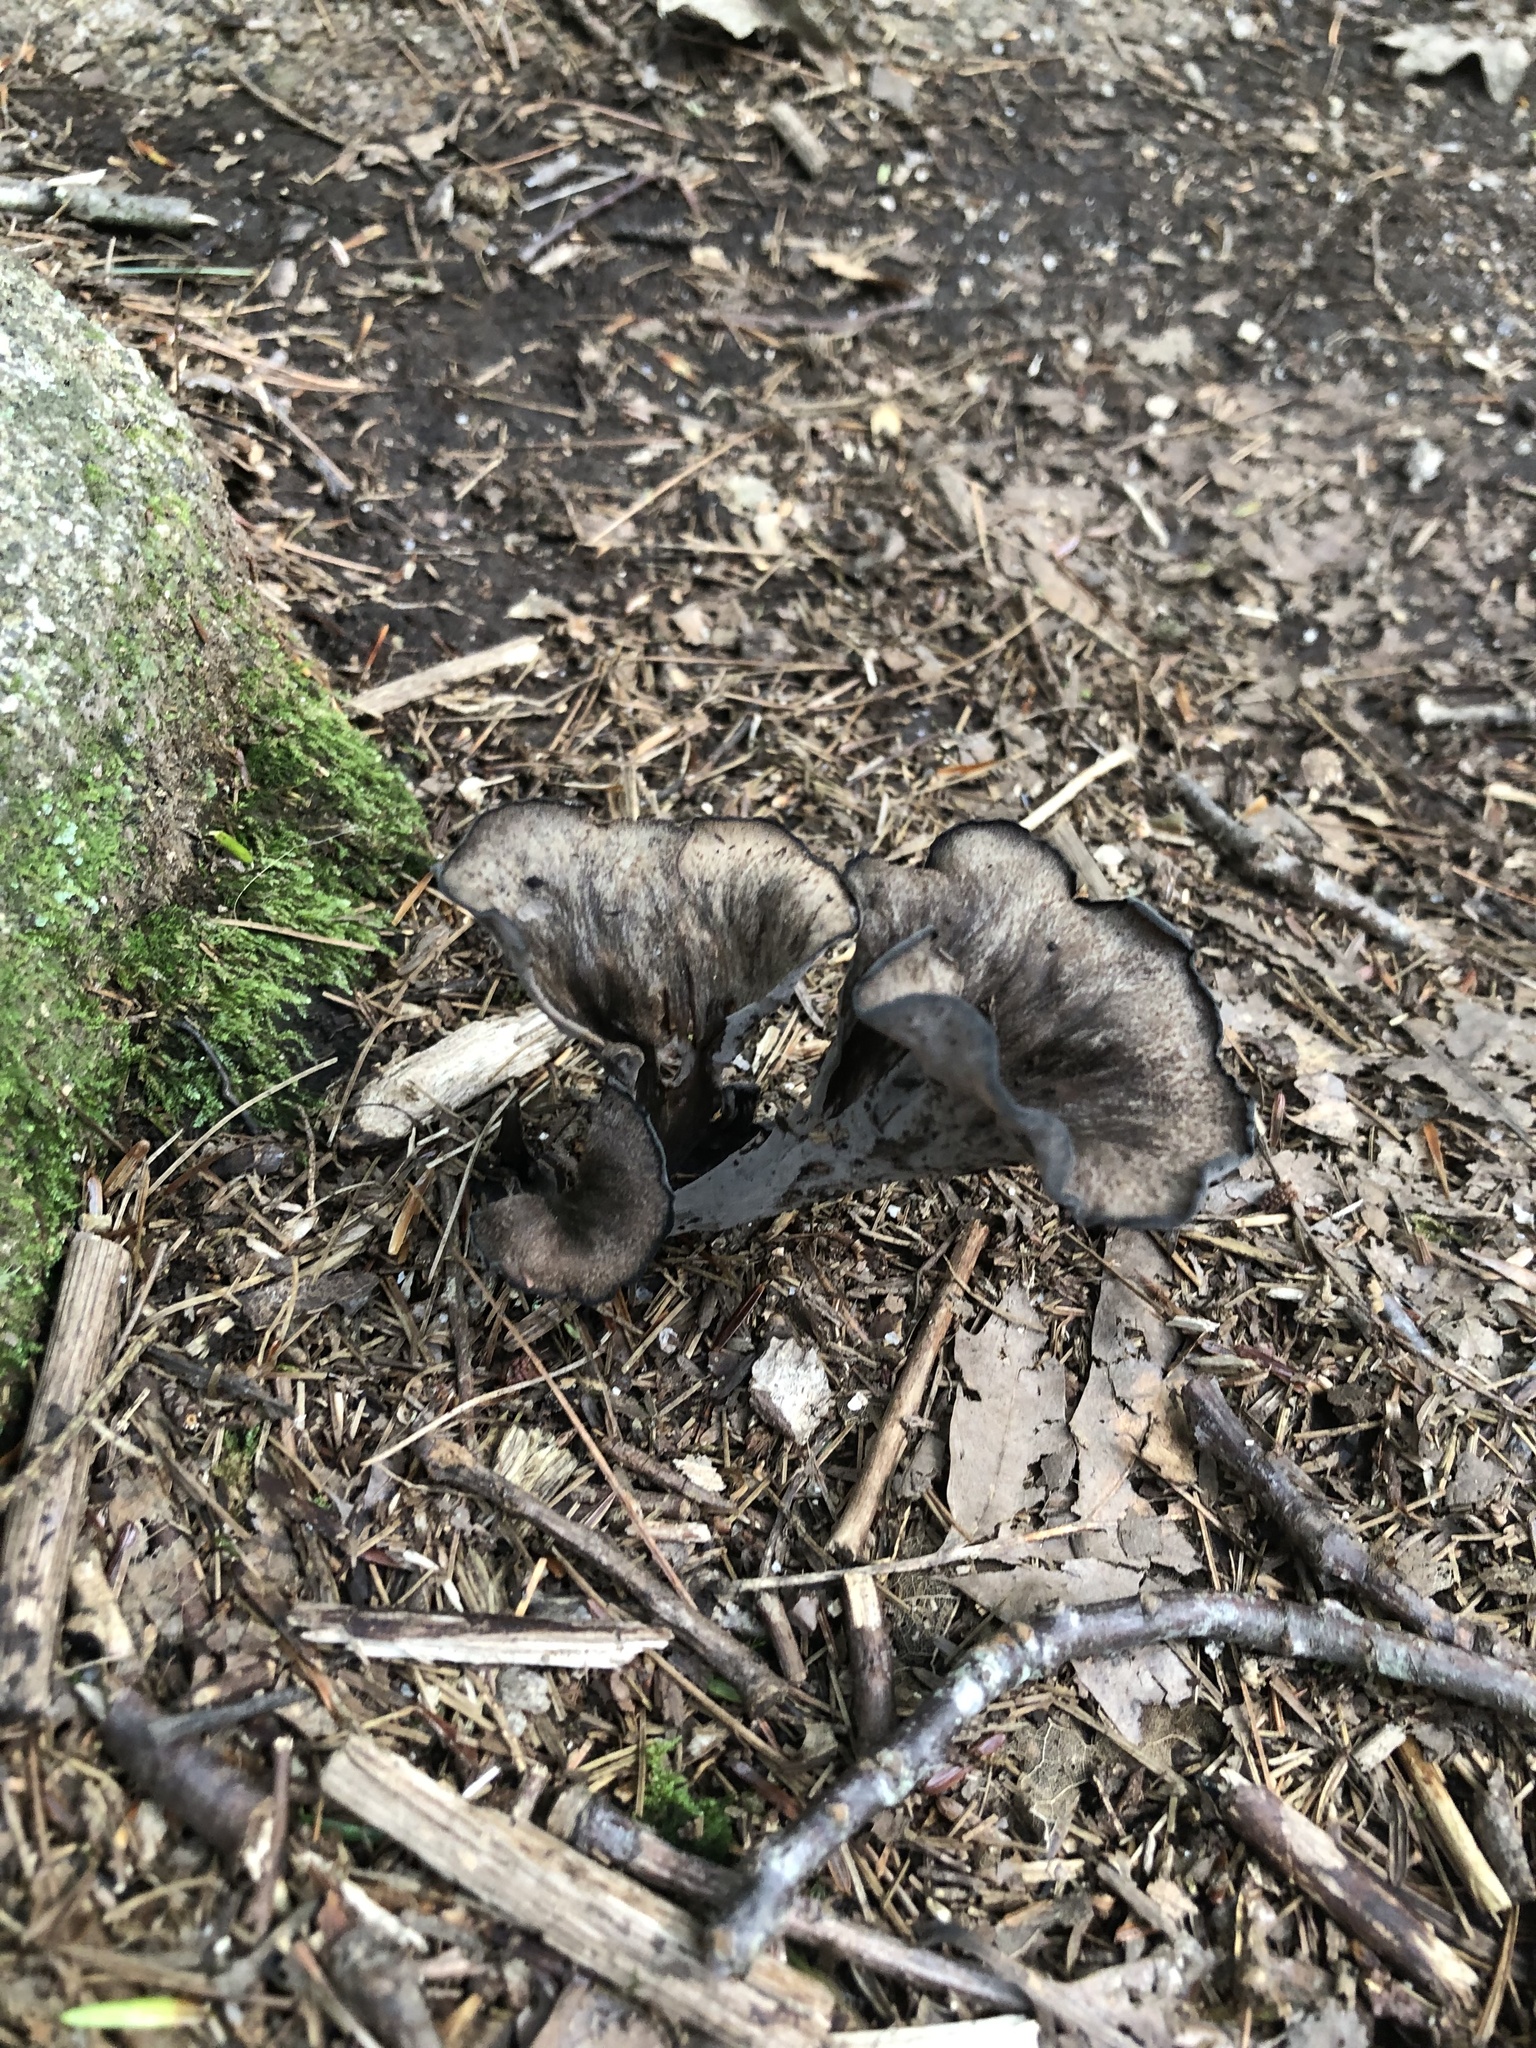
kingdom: Fungi
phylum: Basidiomycota
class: Agaricomycetes
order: Cantharellales
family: Hydnaceae
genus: Craterellus
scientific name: Craterellus cornucopioides
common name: Horn of plenty
